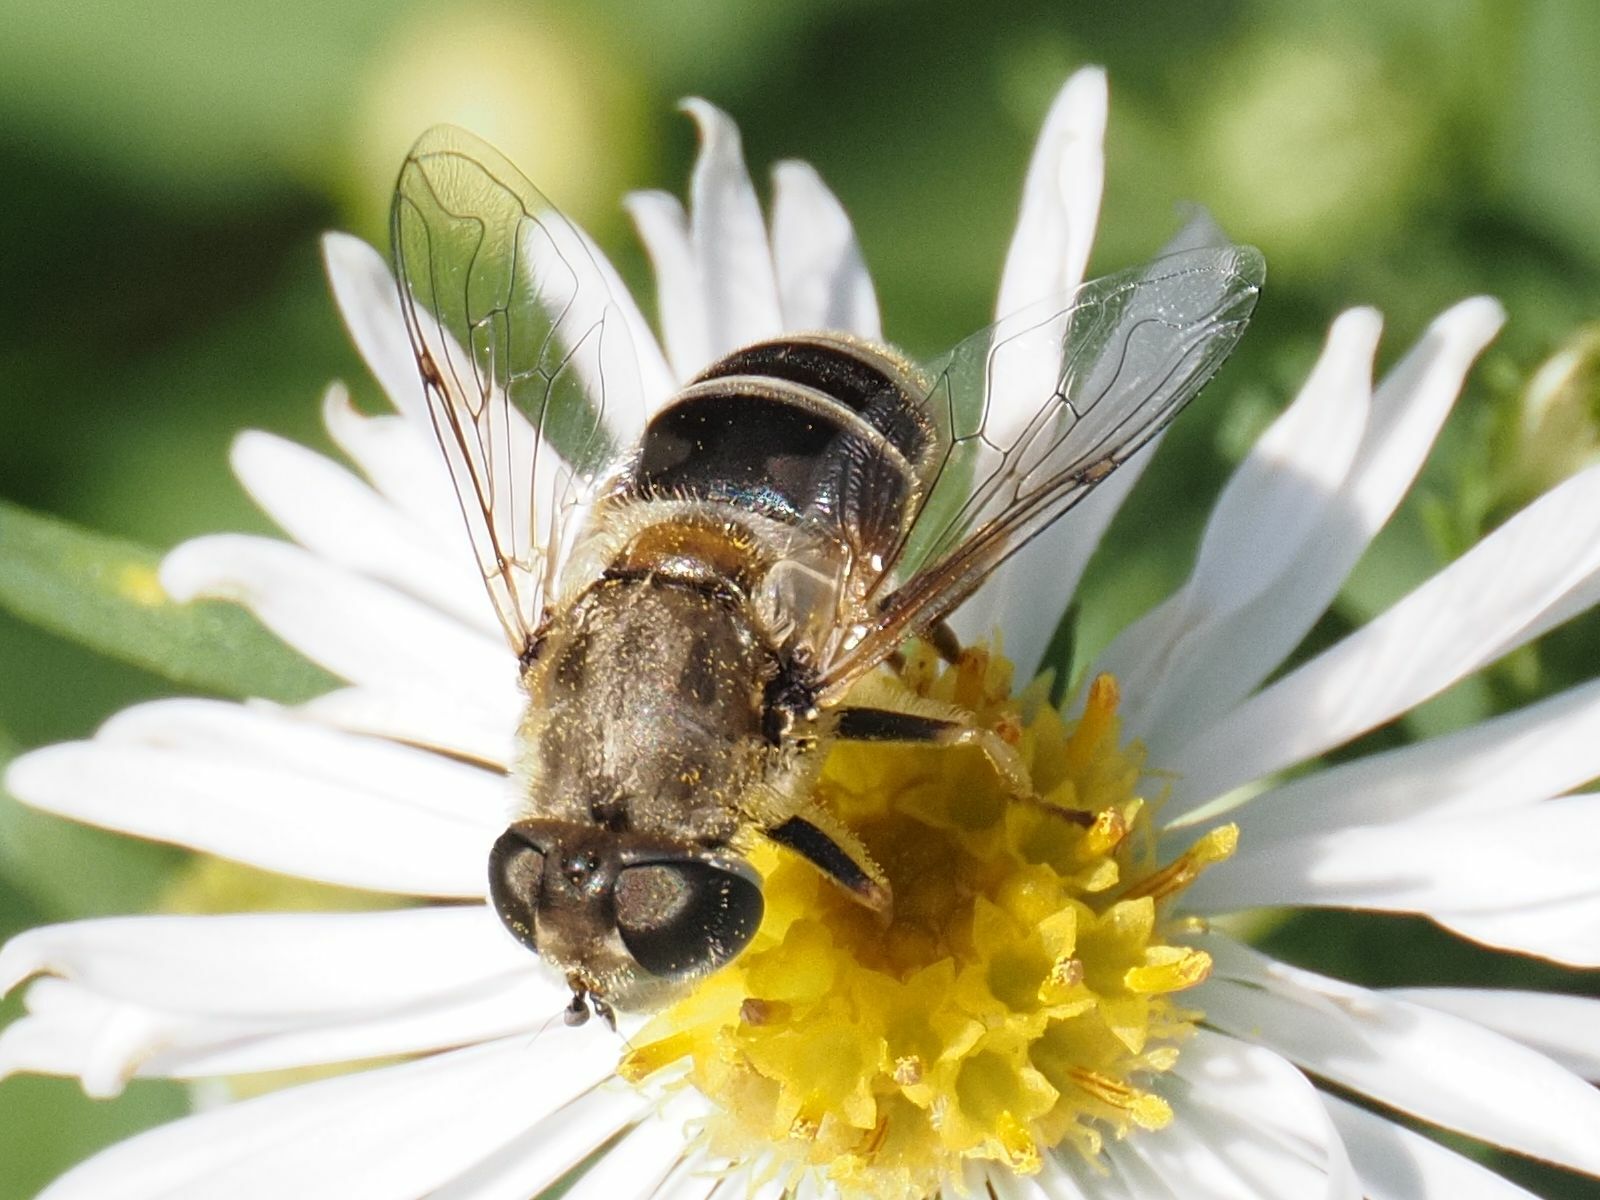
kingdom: Animalia
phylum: Arthropoda
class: Insecta
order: Diptera
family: Syrphidae
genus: Eristalis
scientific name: Eristalis arbustorum
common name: Hover fly
